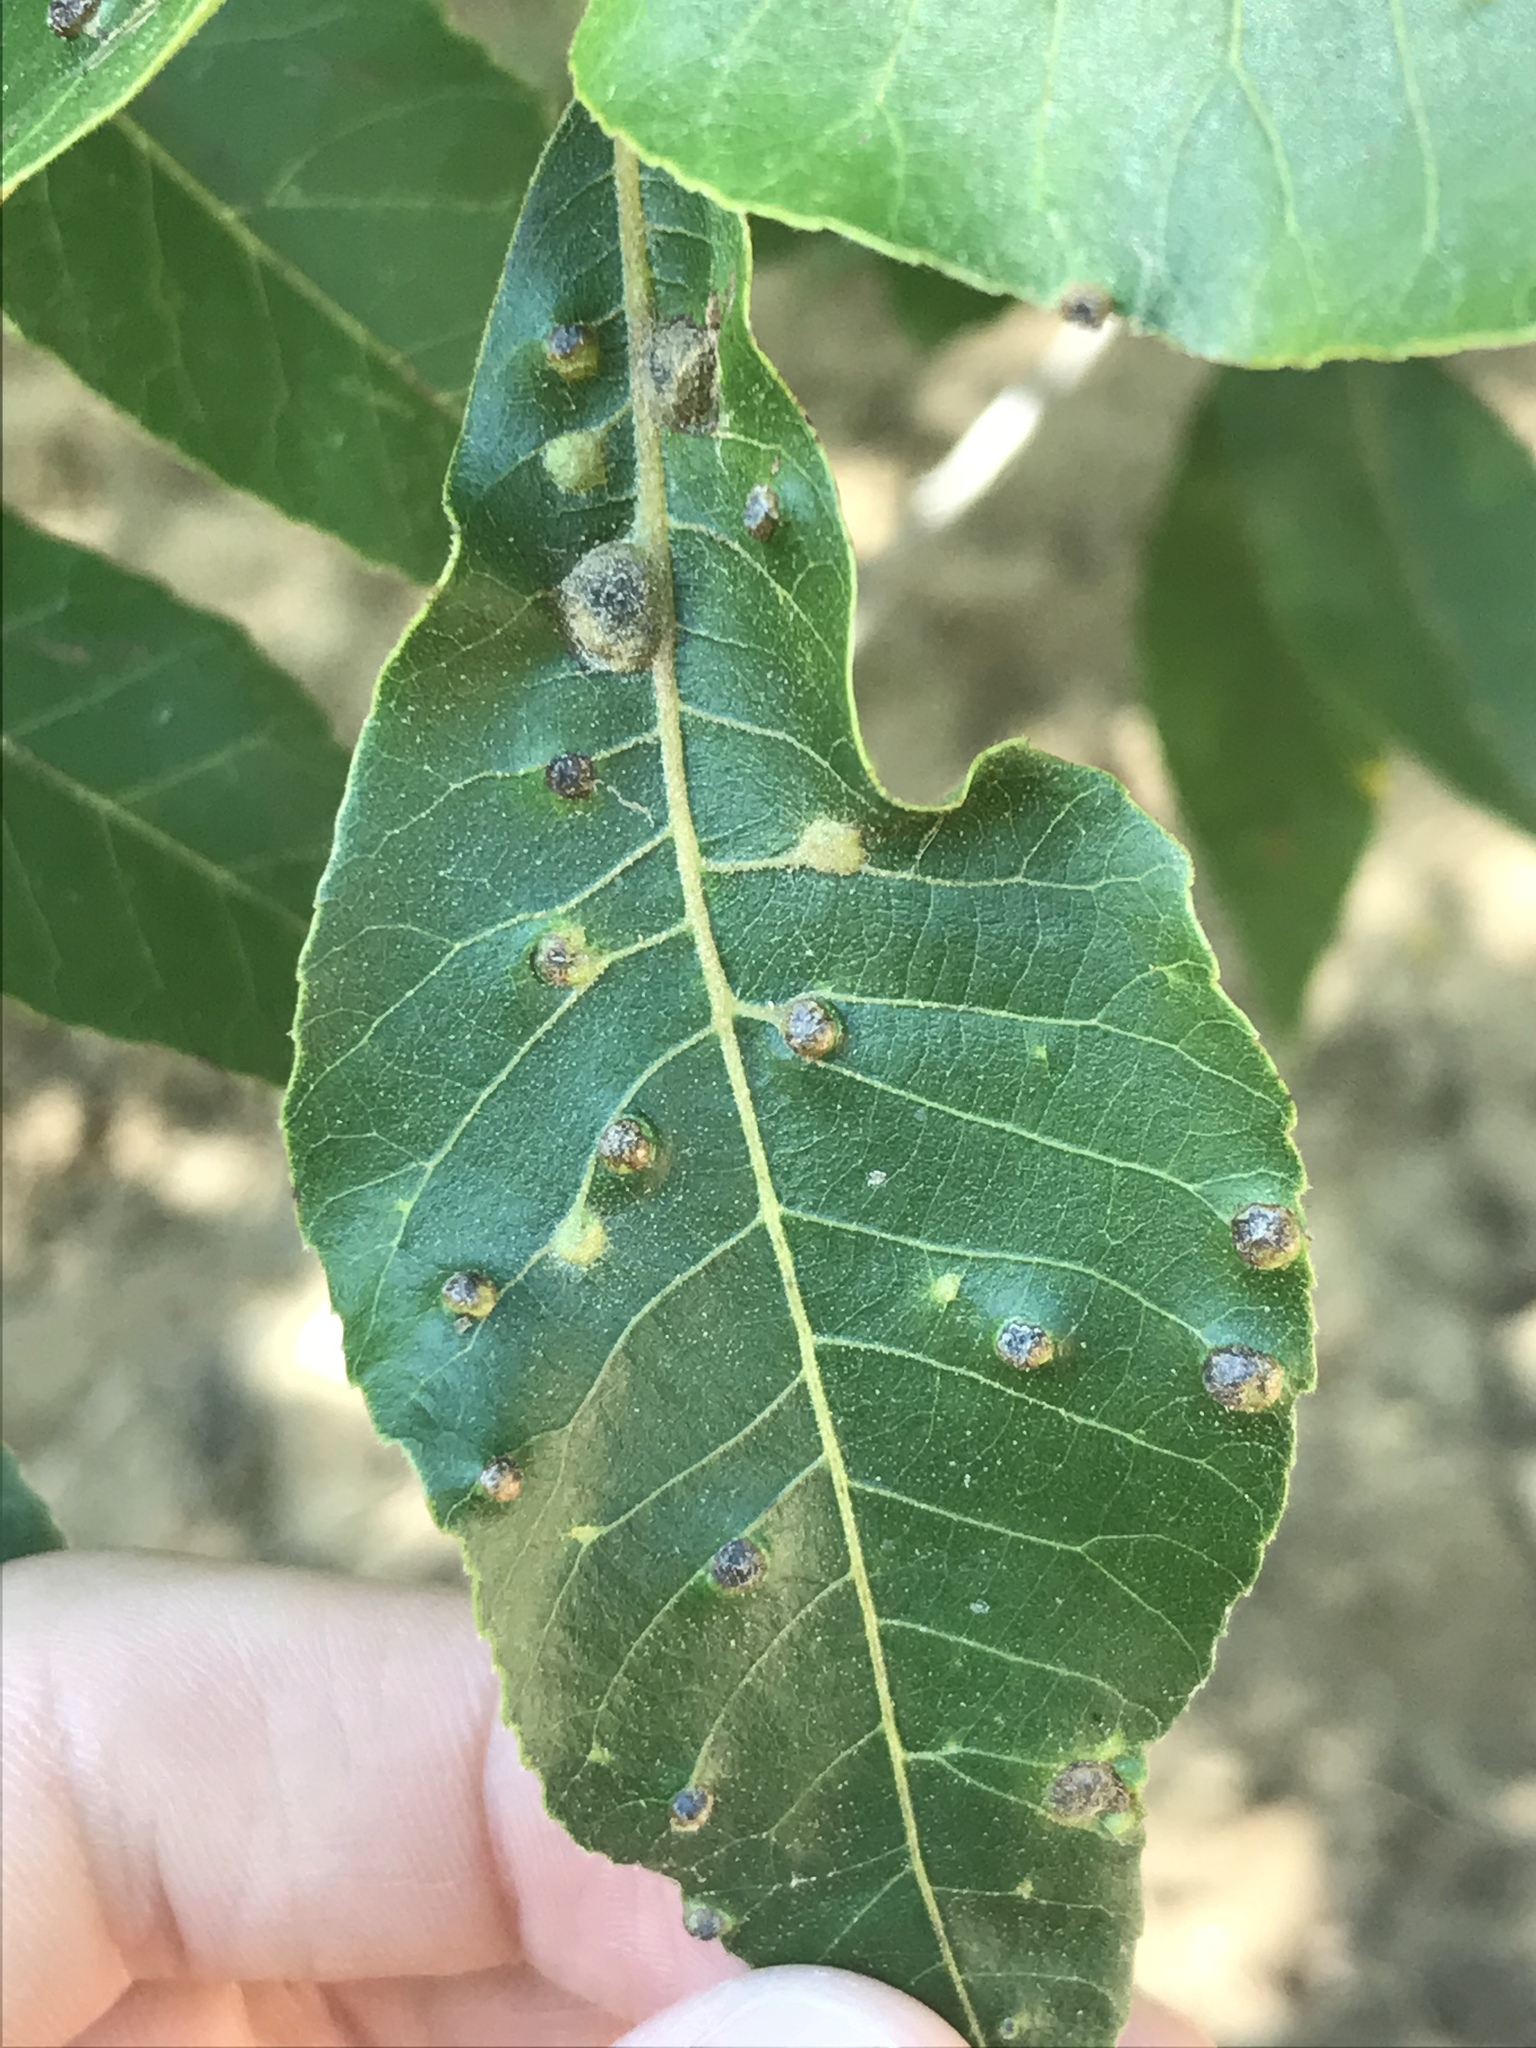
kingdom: Animalia
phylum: Arthropoda
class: Insecta
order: Hemiptera
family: Phylloxeridae
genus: Daktulosphaira
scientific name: Daktulosphaira notabilis
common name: Pecan leaf phylloxera
